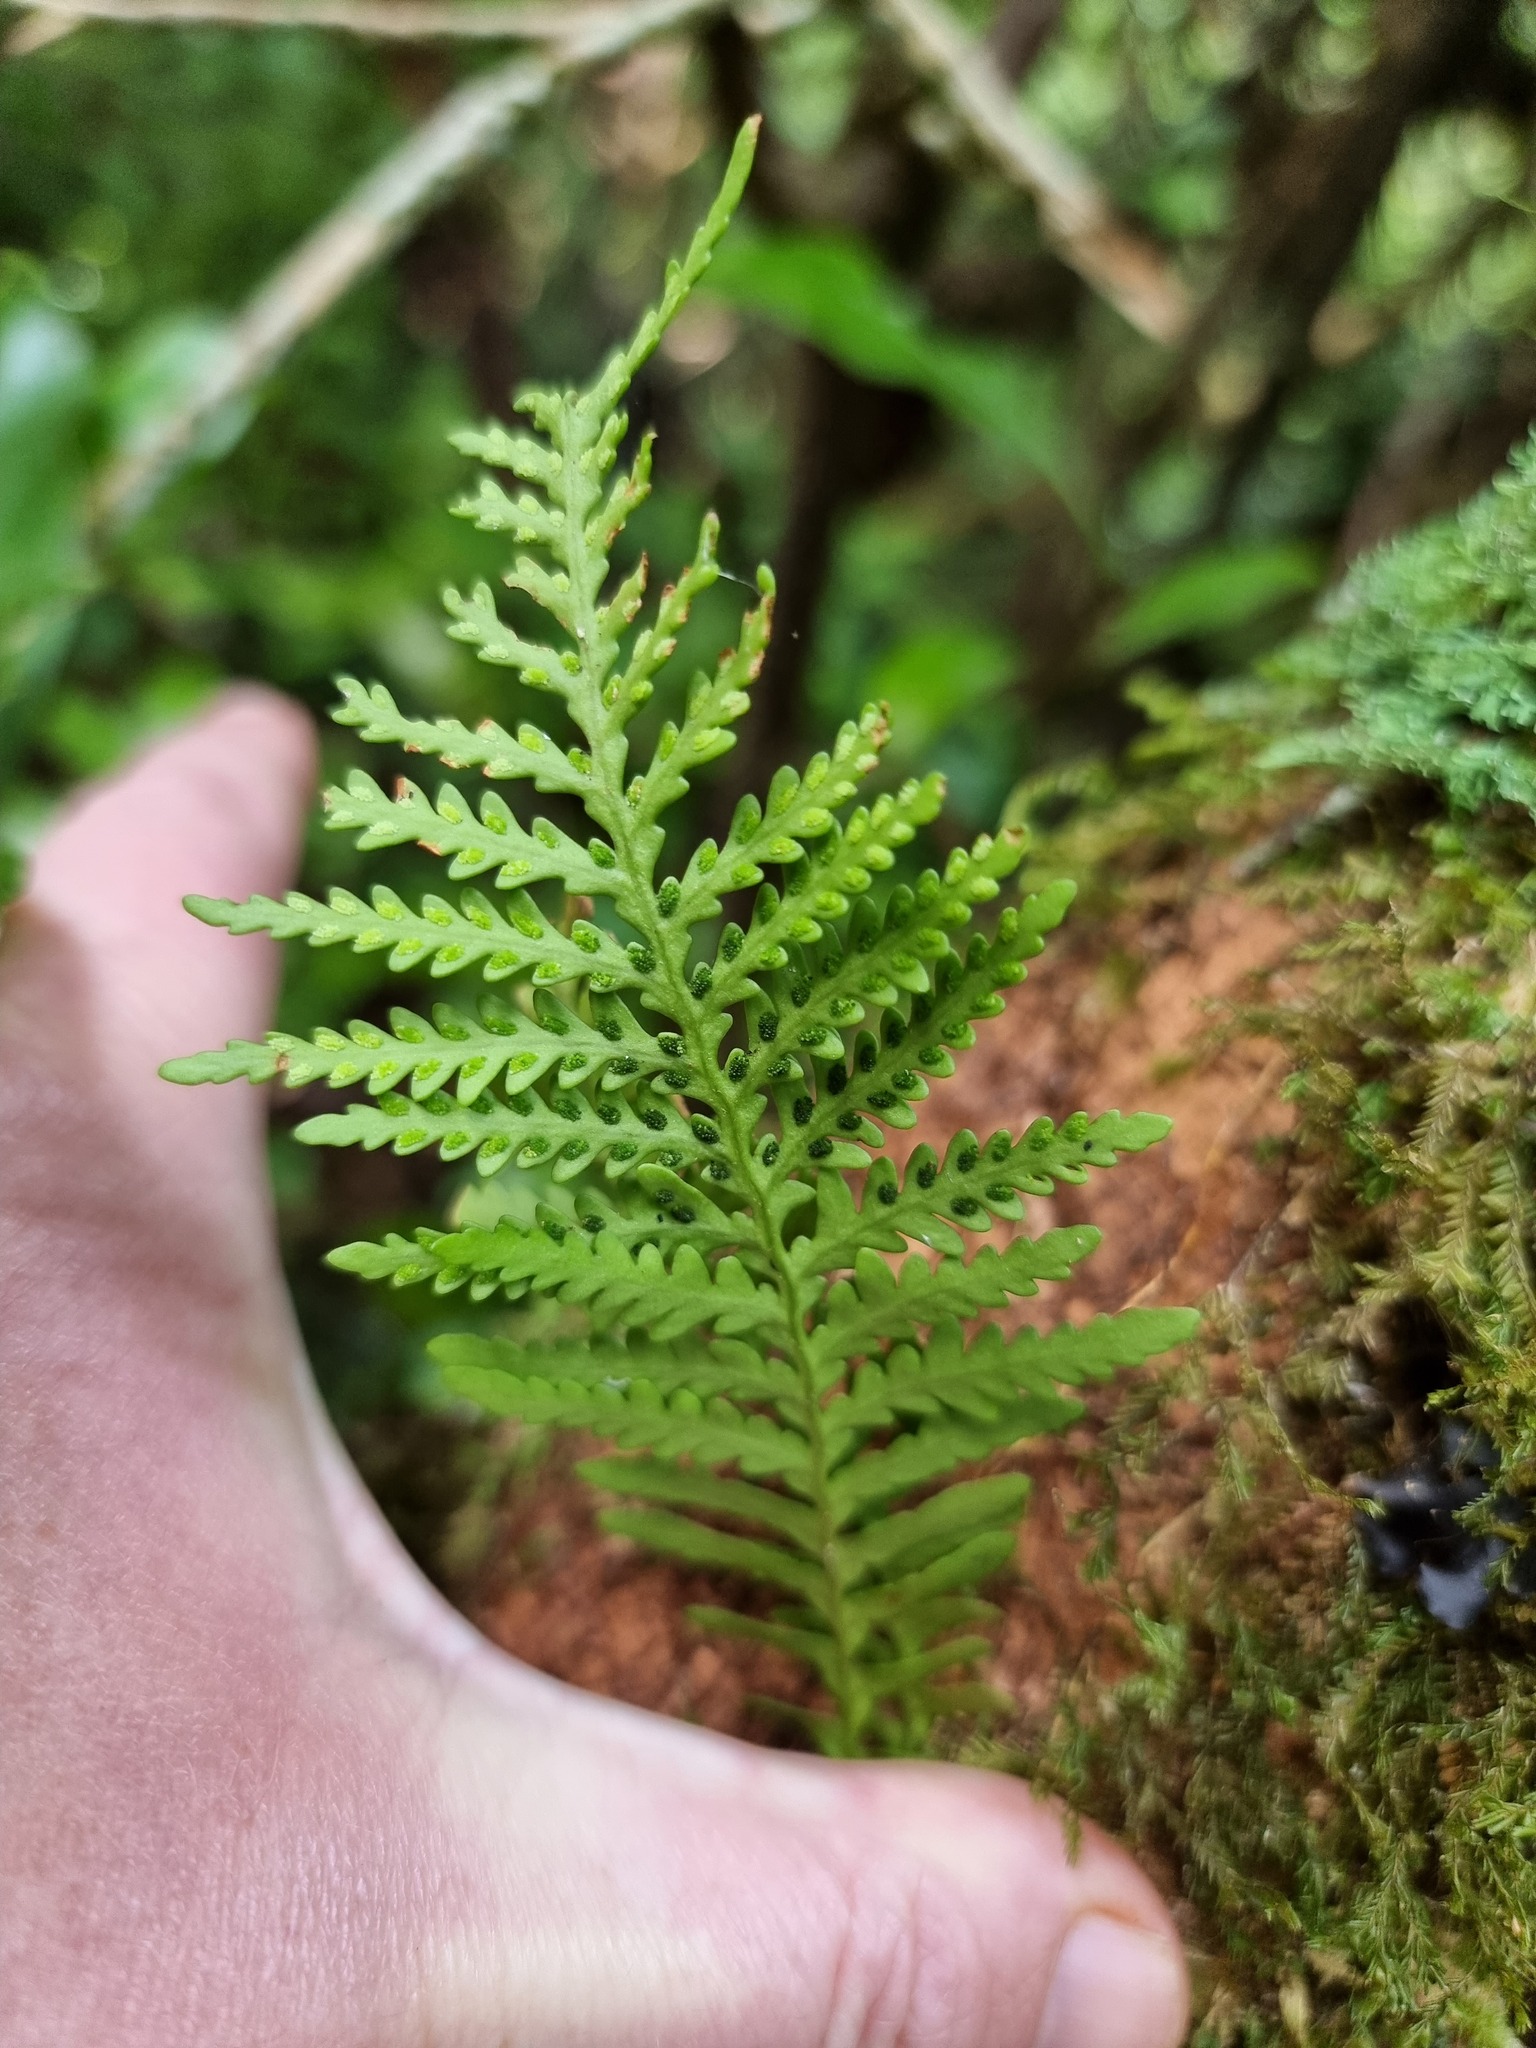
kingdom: Plantae
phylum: Tracheophyta
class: Polypodiopsida
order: Polypodiales
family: Polypodiaceae
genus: Notogrammitis
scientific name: Notogrammitis heterophylla
